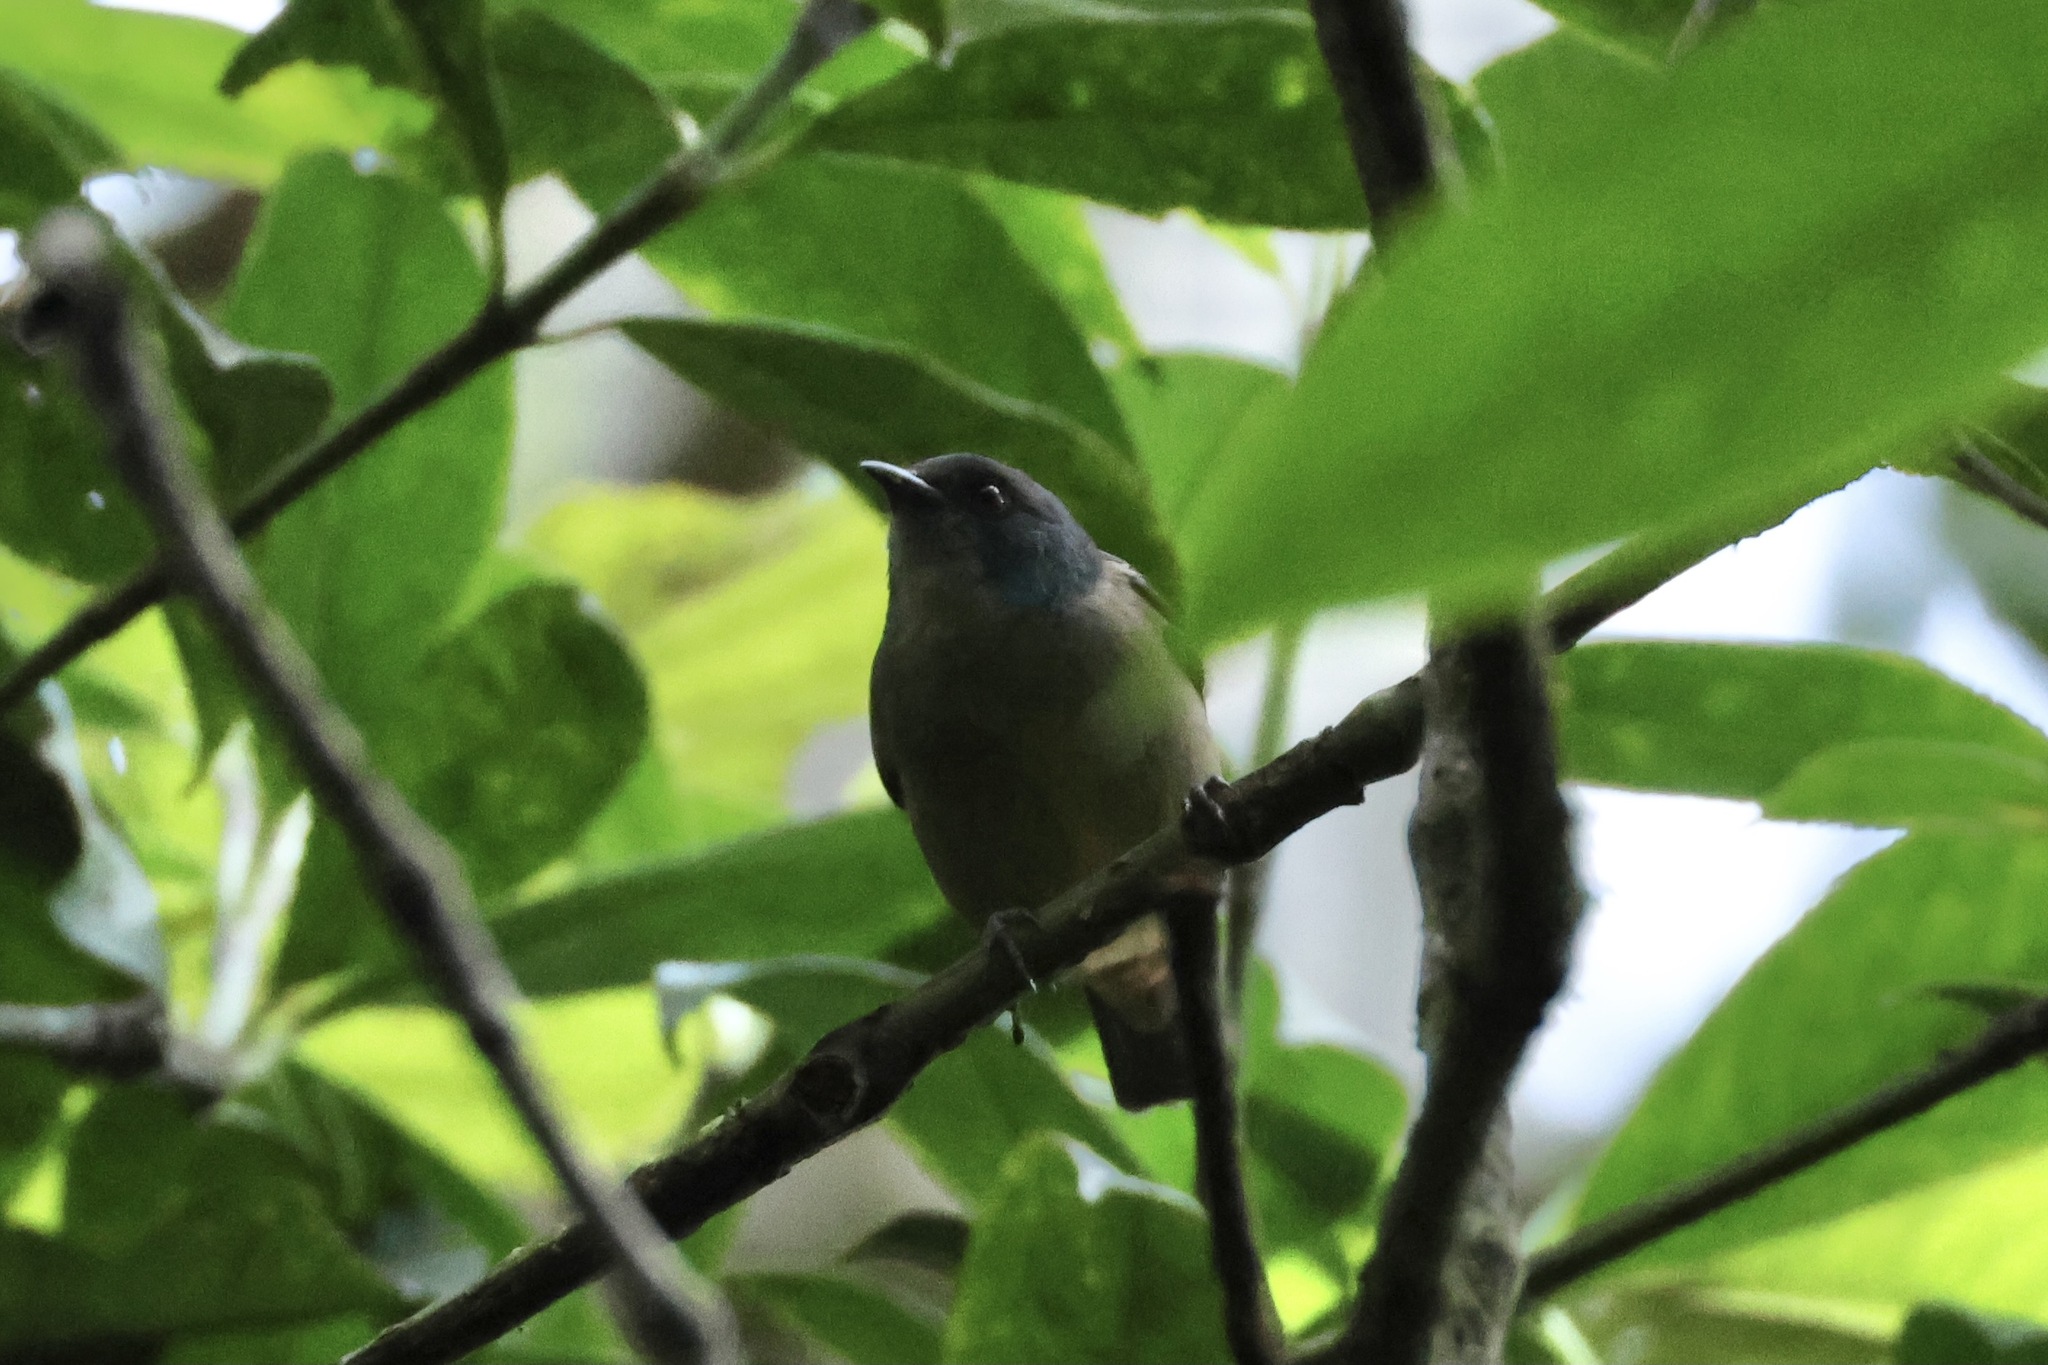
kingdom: Animalia
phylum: Chordata
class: Aves
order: Passeriformes
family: Thraupidae
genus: Dacnis
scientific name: Dacnis venusta
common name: Scarlet-thighed dacnis
